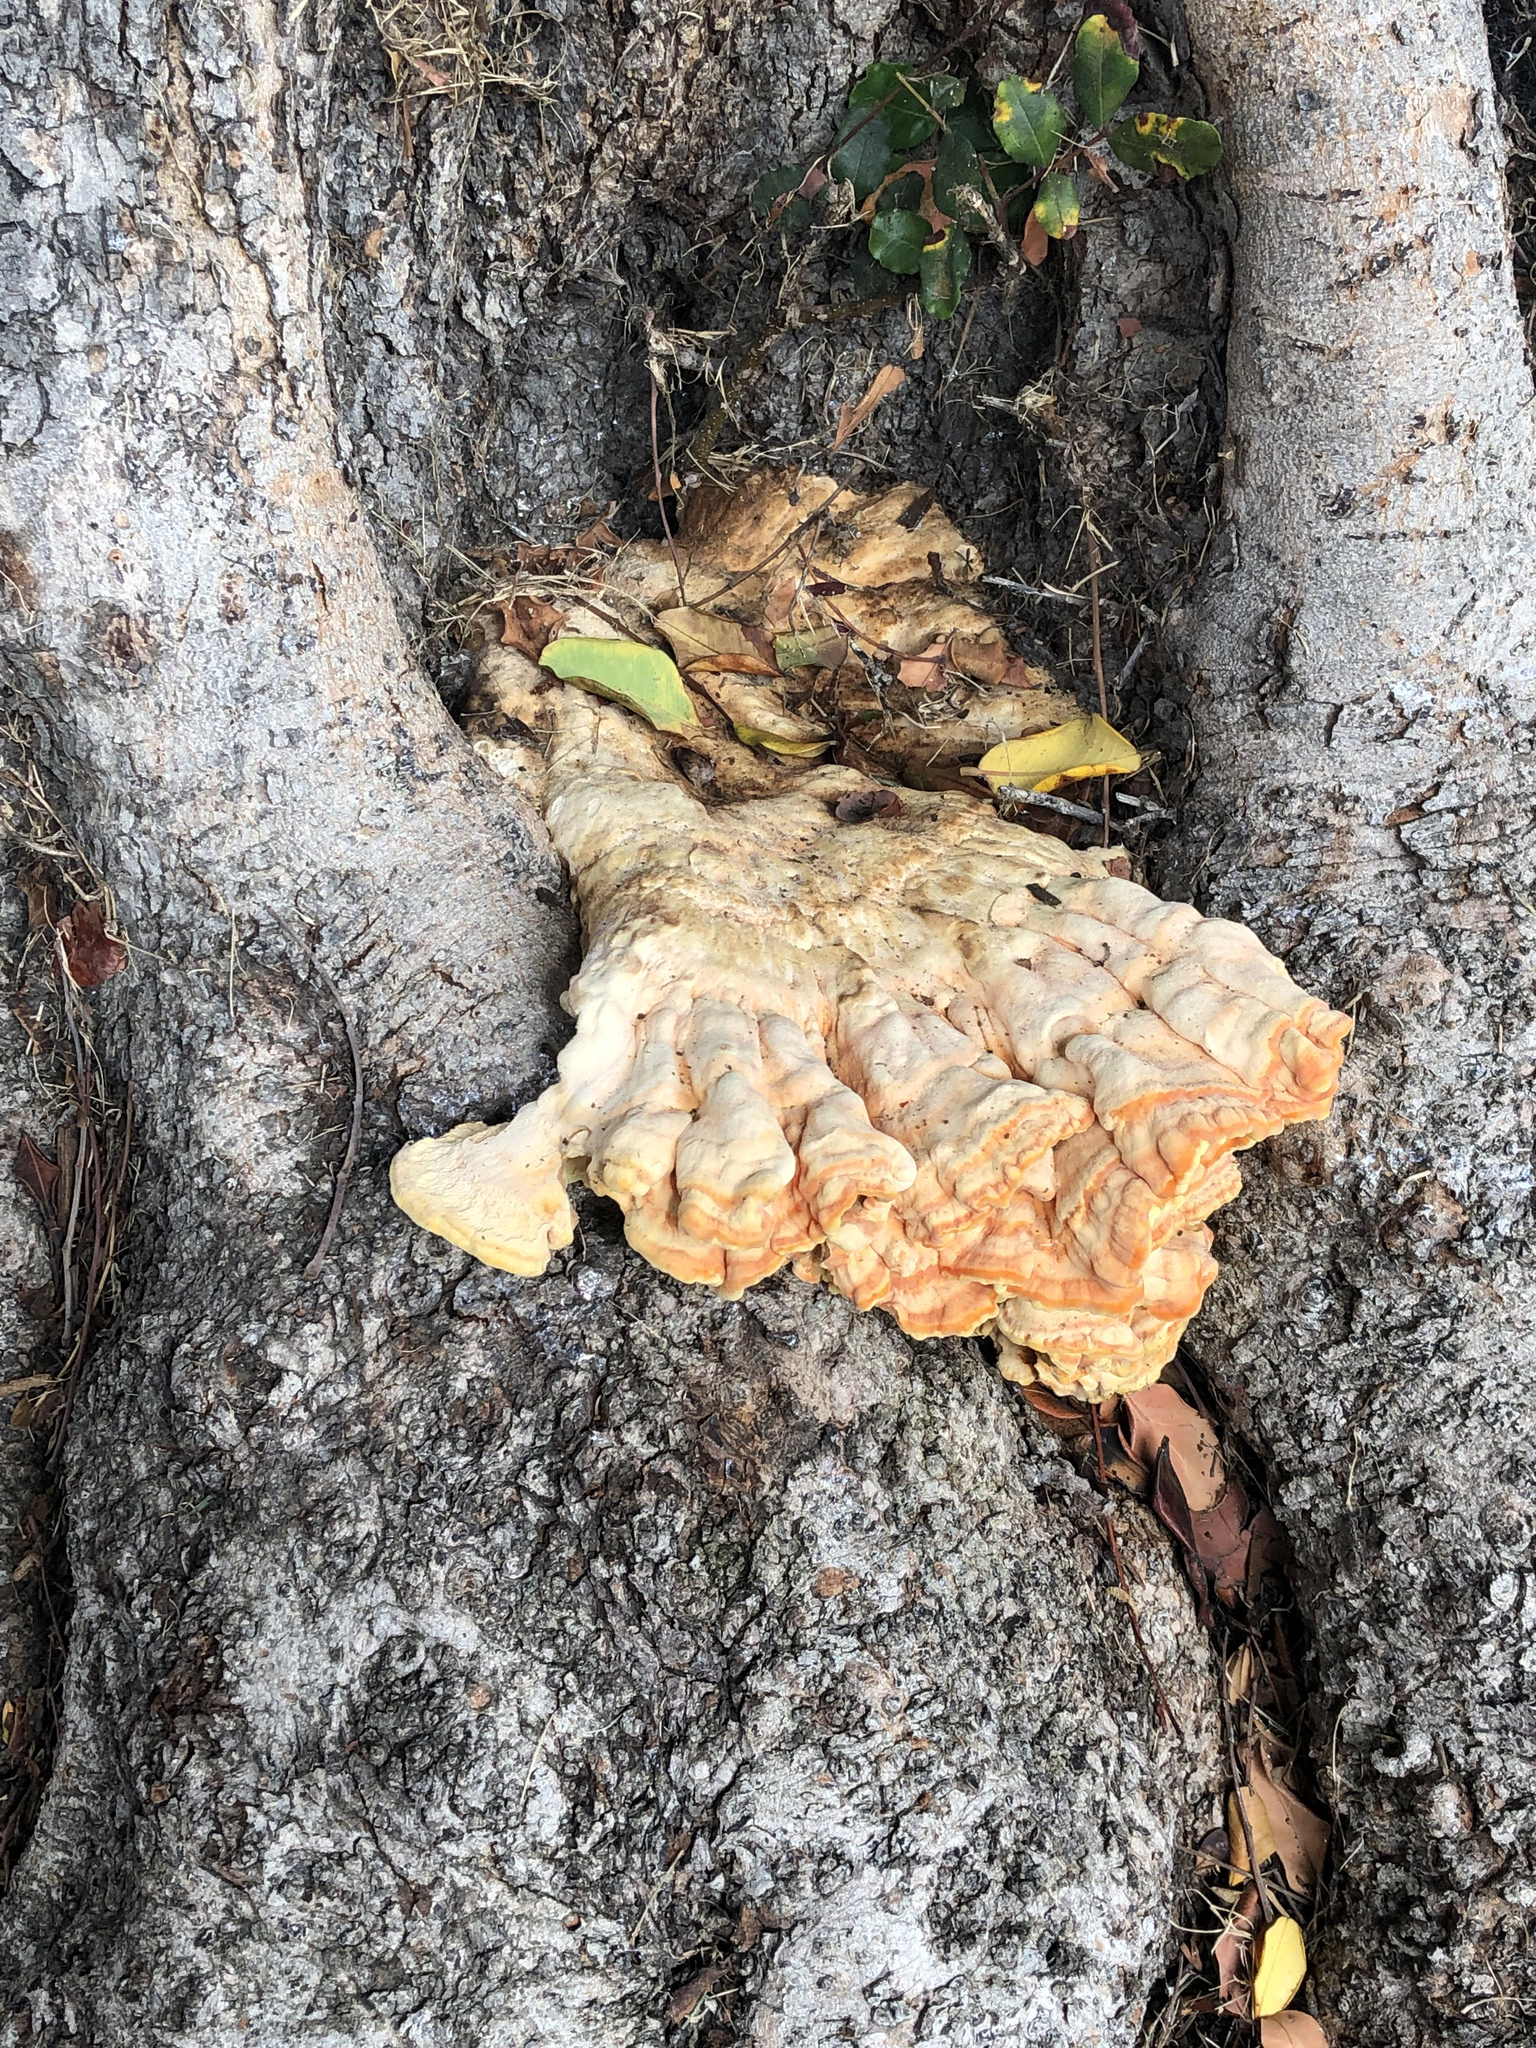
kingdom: Fungi
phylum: Basidiomycota
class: Agaricomycetes
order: Polyporales
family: Laetiporaceae
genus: Laetiporus
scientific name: Laetiporus gilbertsonii
